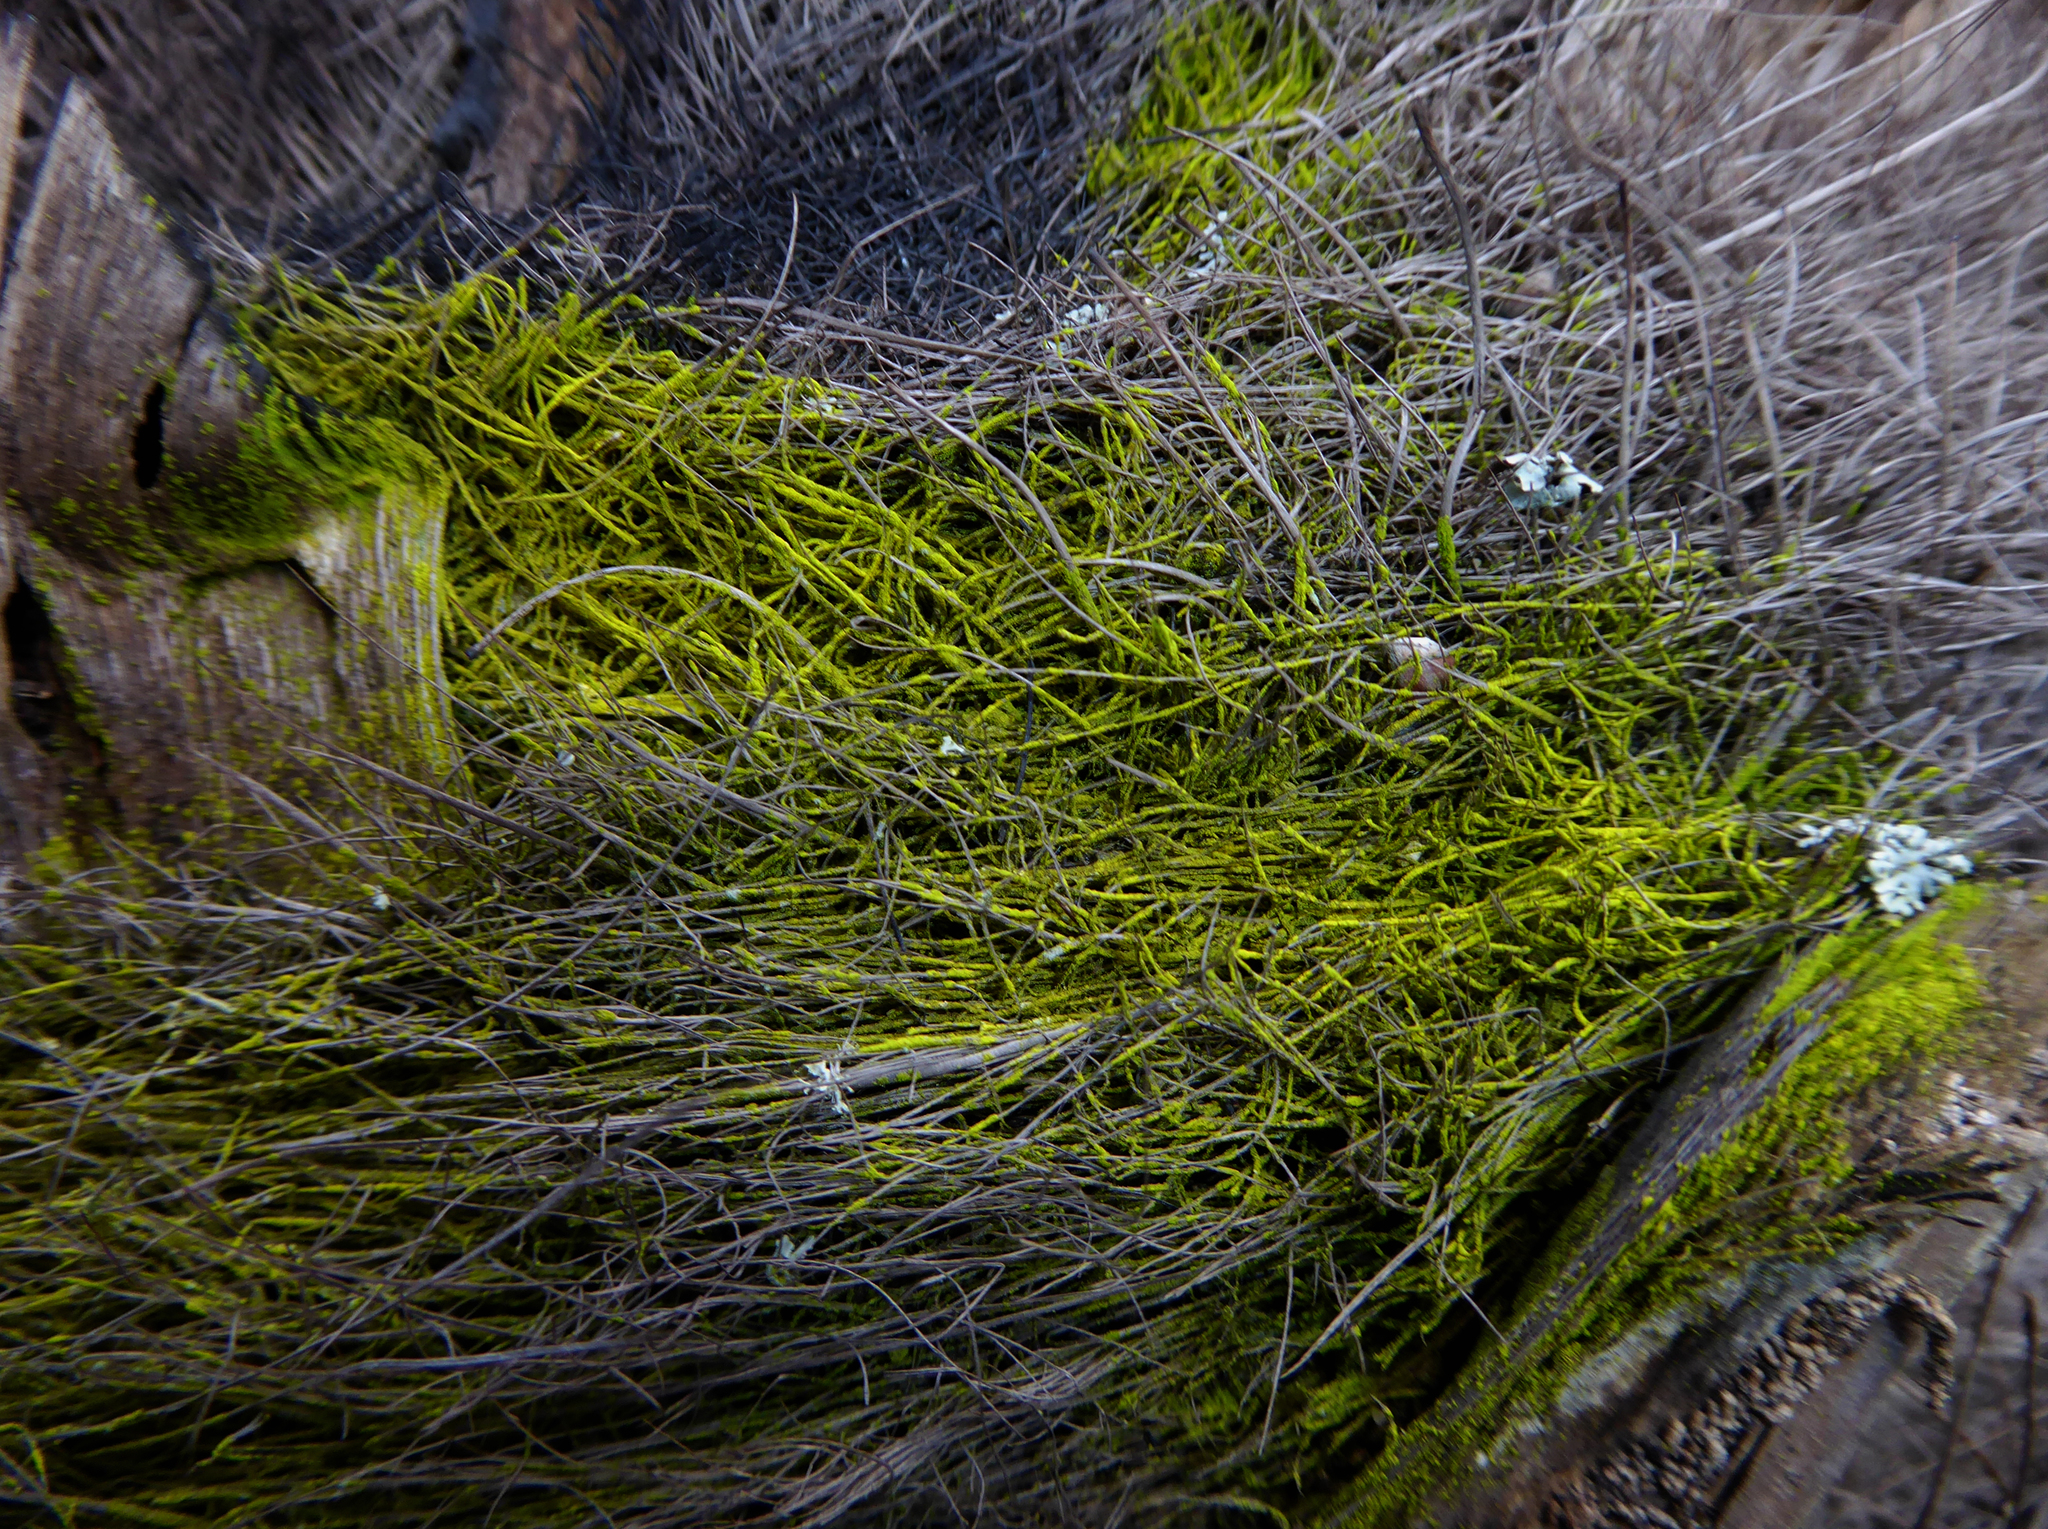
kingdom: Fungi
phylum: Ascomycota
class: Arthoniomycetes
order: Arthoniales
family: Chrysotrichaceae
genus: Chrysothrix
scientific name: Chrysothrix xanthina
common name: Common gold-dust
